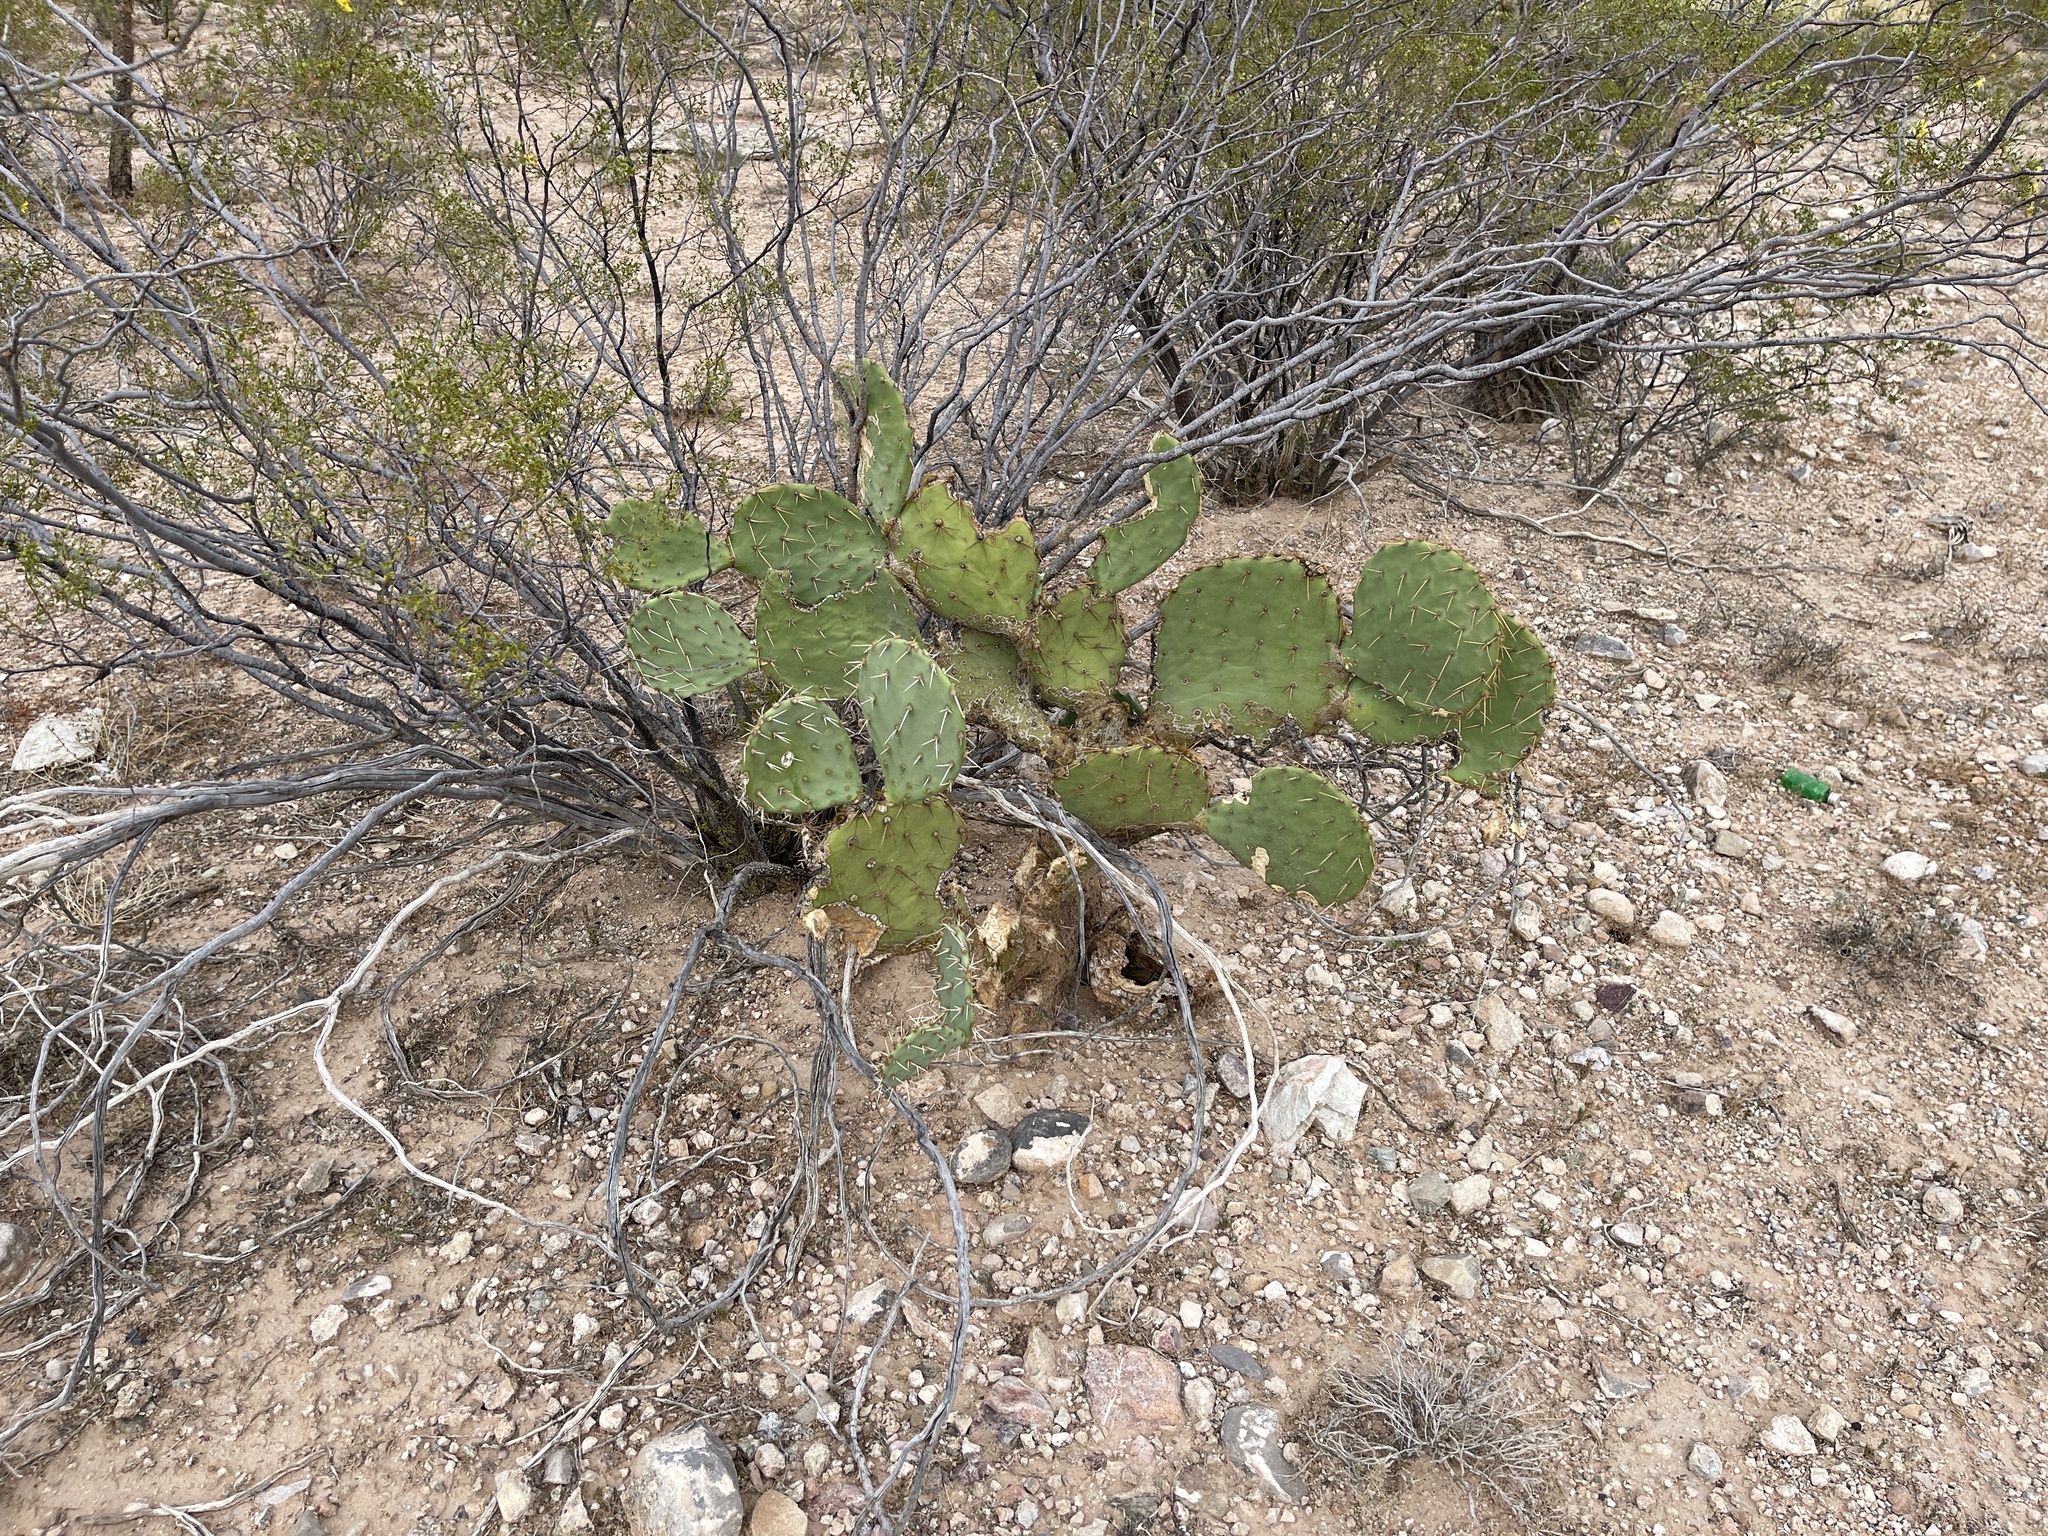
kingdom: Plantae
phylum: Tracheophyta
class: Magnoliopsida
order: Caryophyllales
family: Cactaceae
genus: Opuntia
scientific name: Opuntia engelmannii
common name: Cactus-apple
